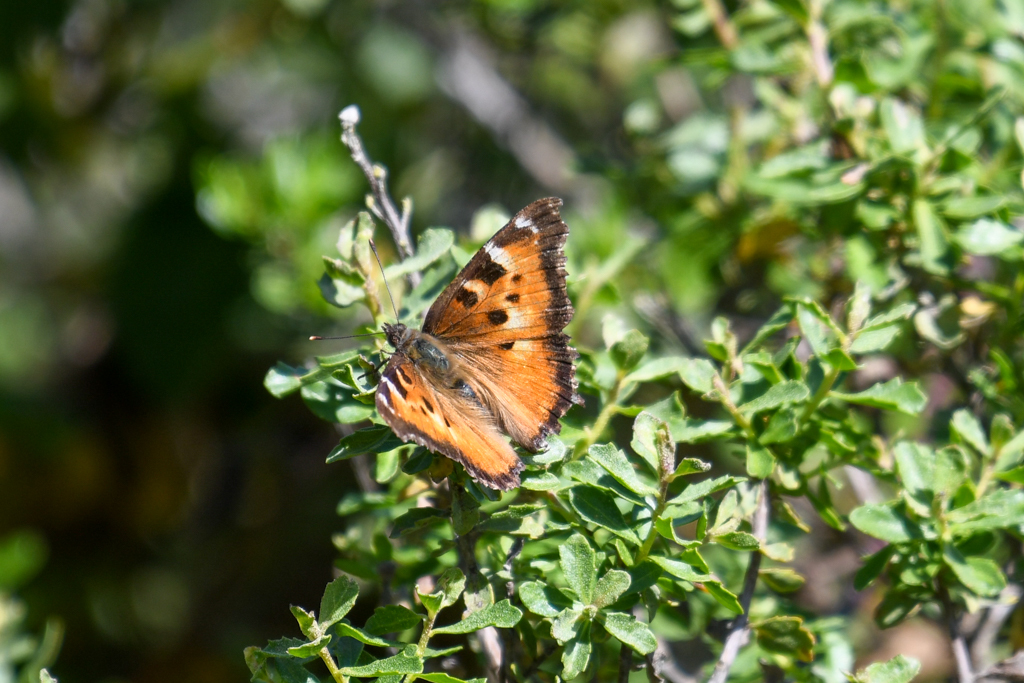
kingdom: Animalia
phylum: Arthropoda
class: Insecta
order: Lepidoptera
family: Nymphalidae
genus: Nymphalis
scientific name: Nymphalis californica
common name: California tortoiseshell
